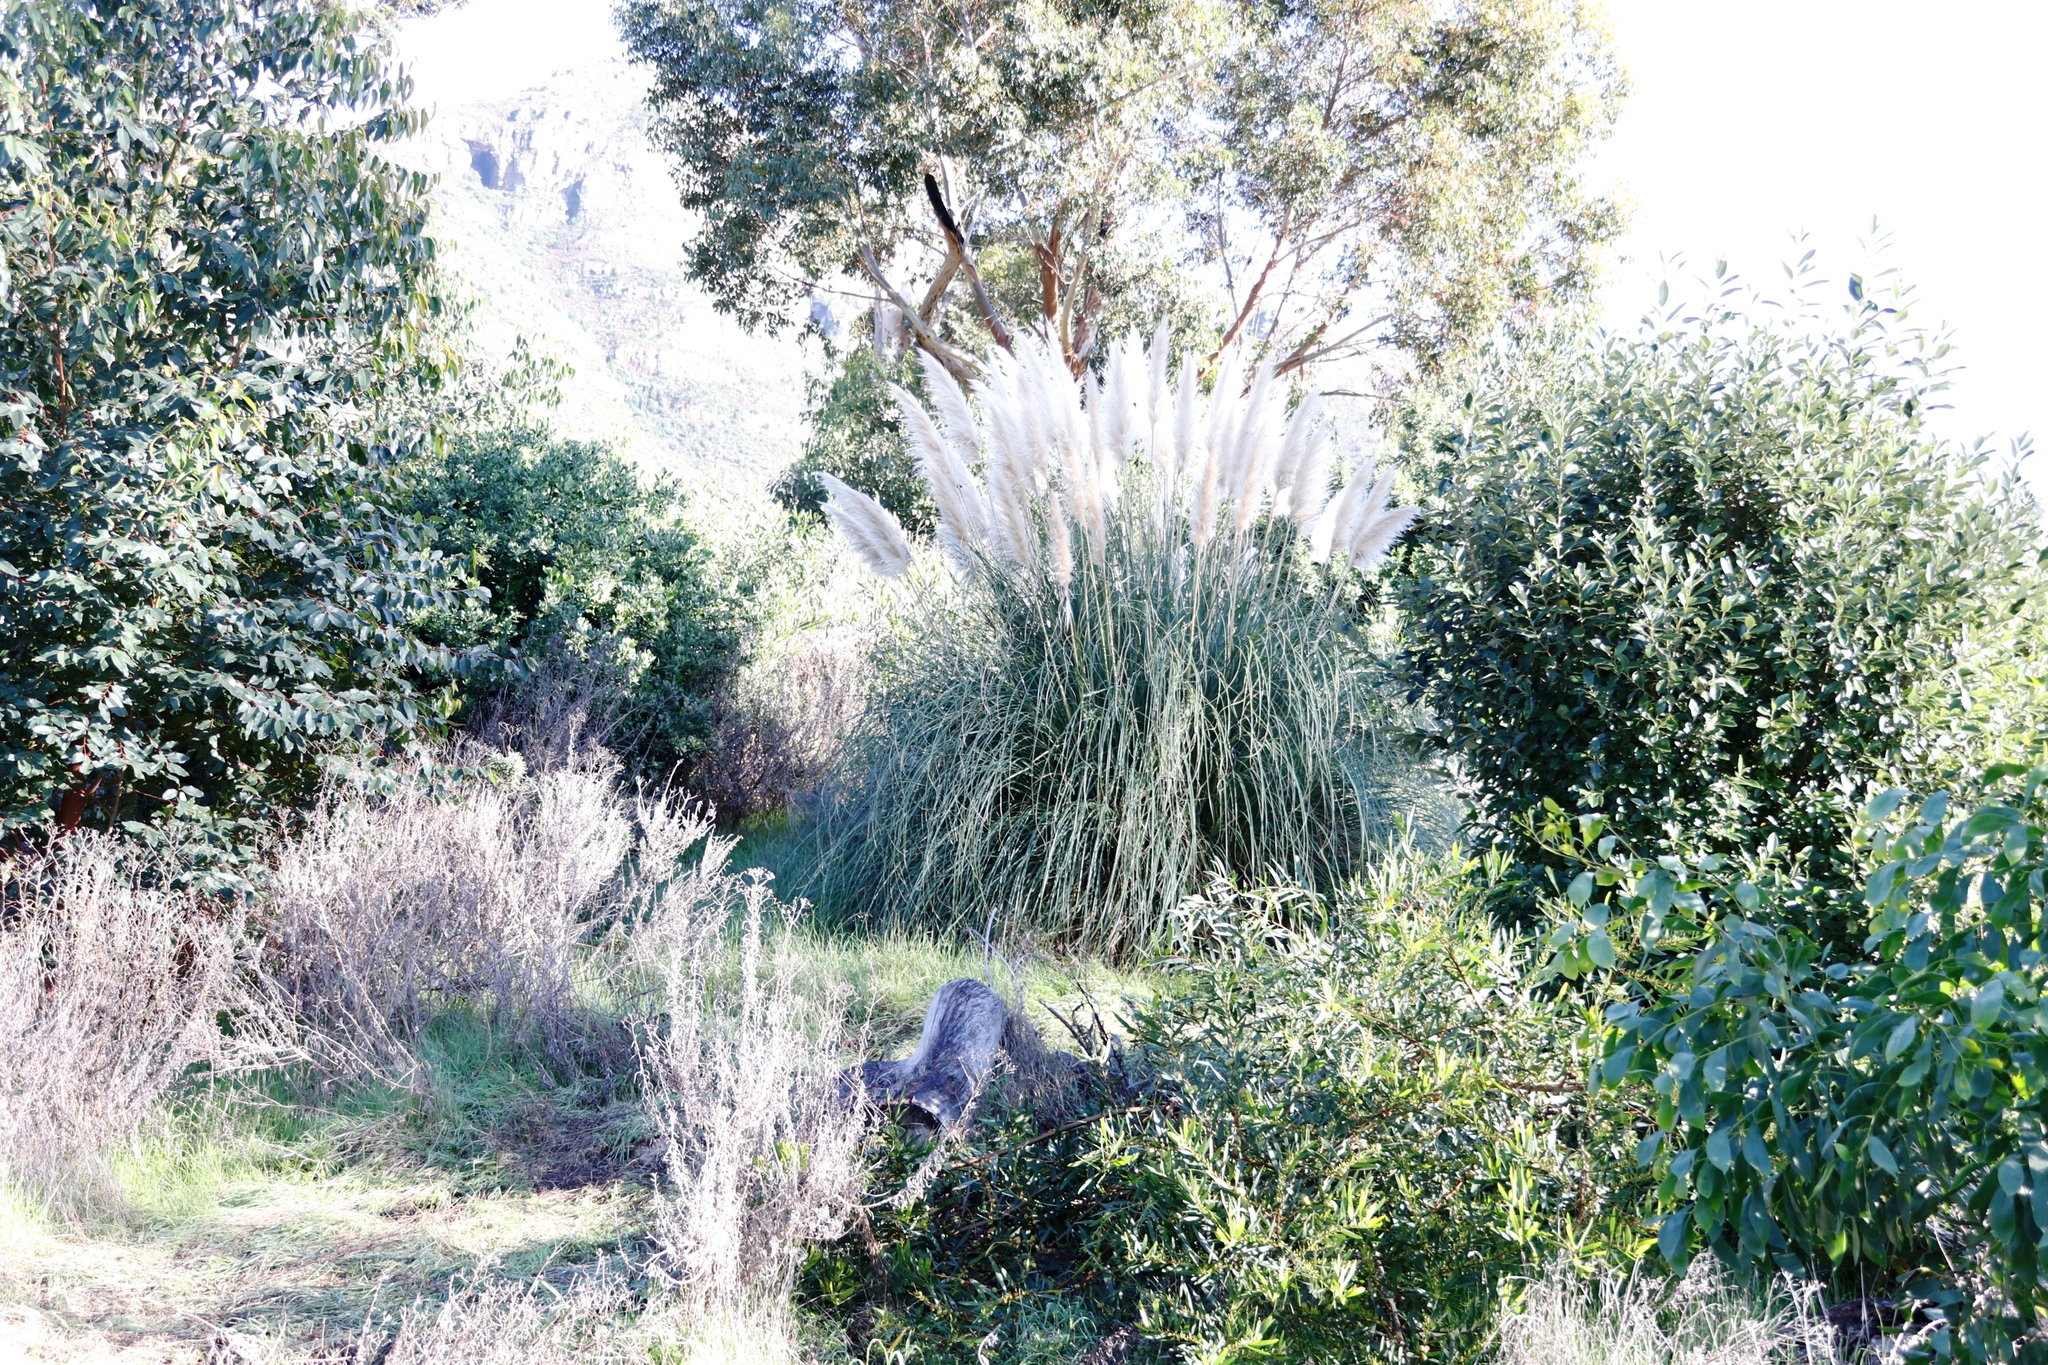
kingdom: Plantae
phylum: Tracheophyta
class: Liliopsida
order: Poales
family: Poaceae
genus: Cortaderia
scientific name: Cortaderia selloana
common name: Uruguayan pampas grass
